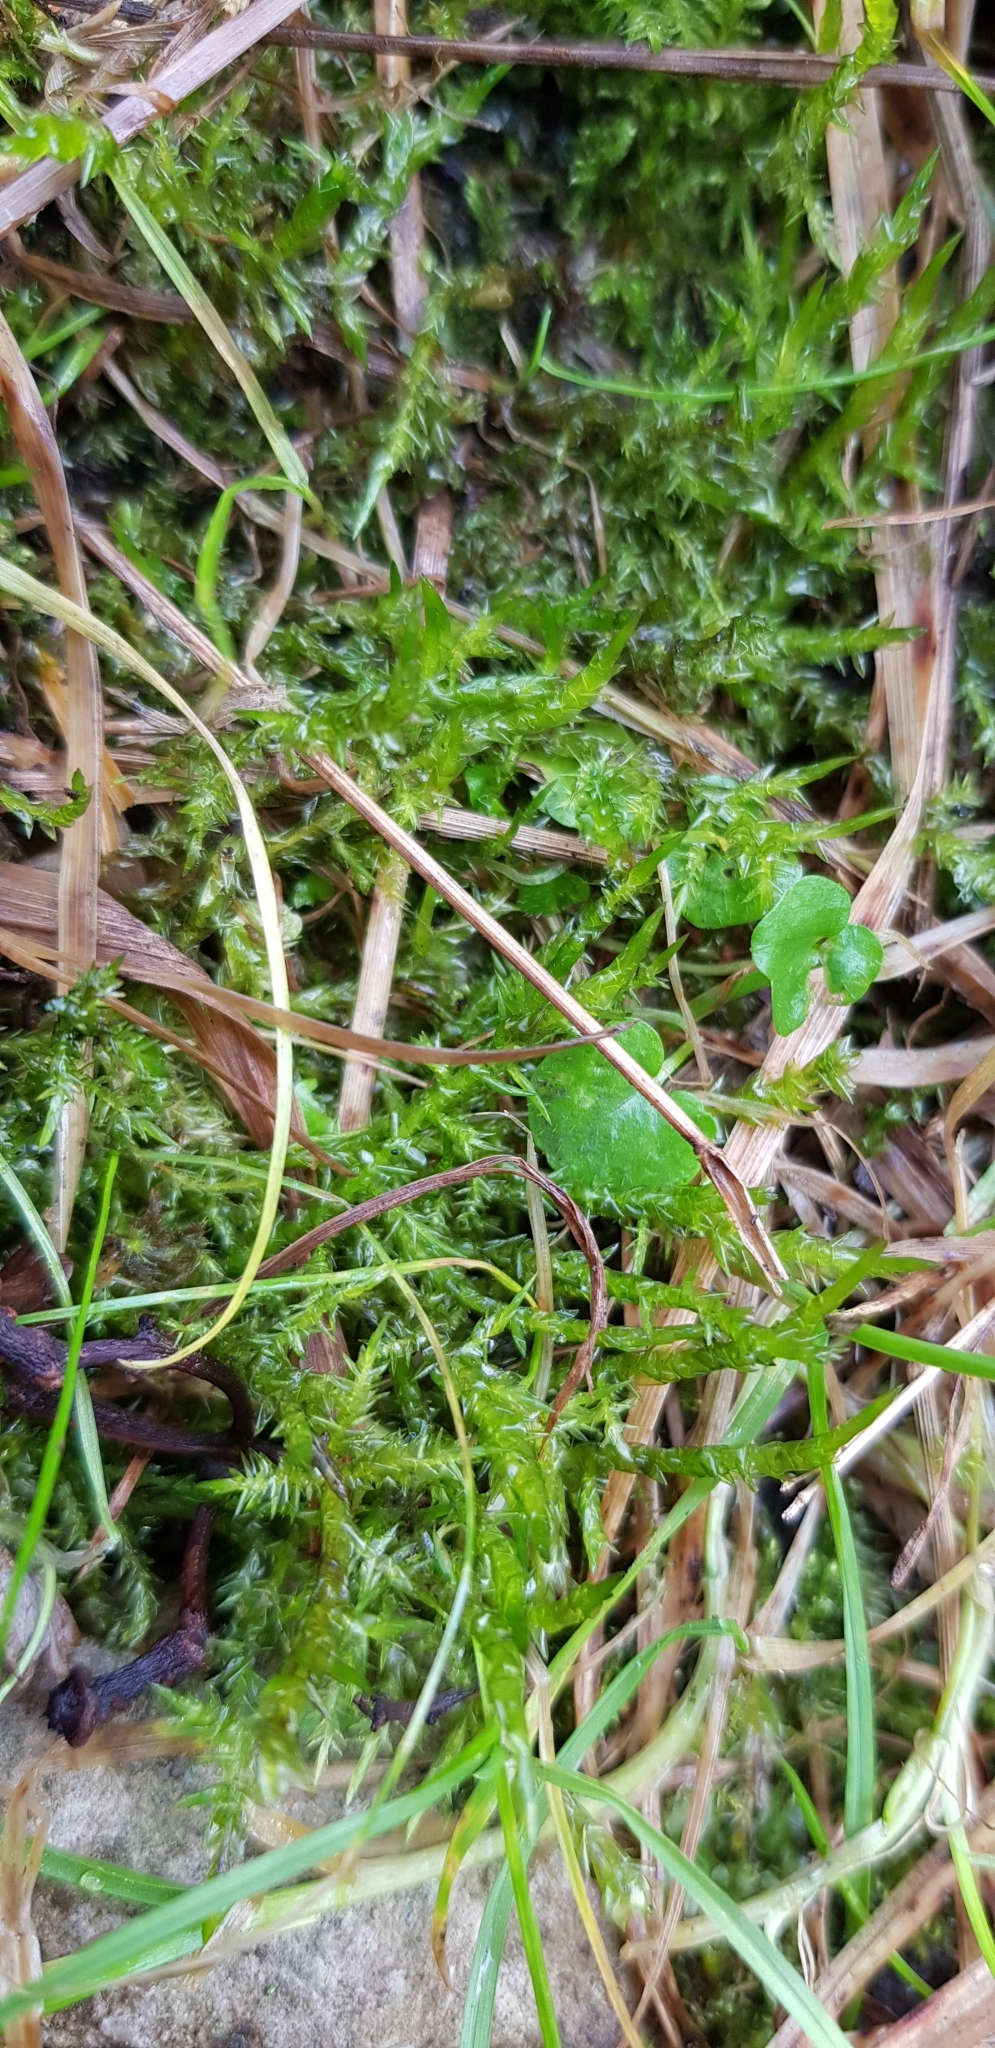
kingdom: Plantae
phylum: Bryophyta
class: Bryopsida
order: Hypnales
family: Pylaisiaceae
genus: Calliergonella
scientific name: Calliergonella cuspidata
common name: Common large wetland moss
